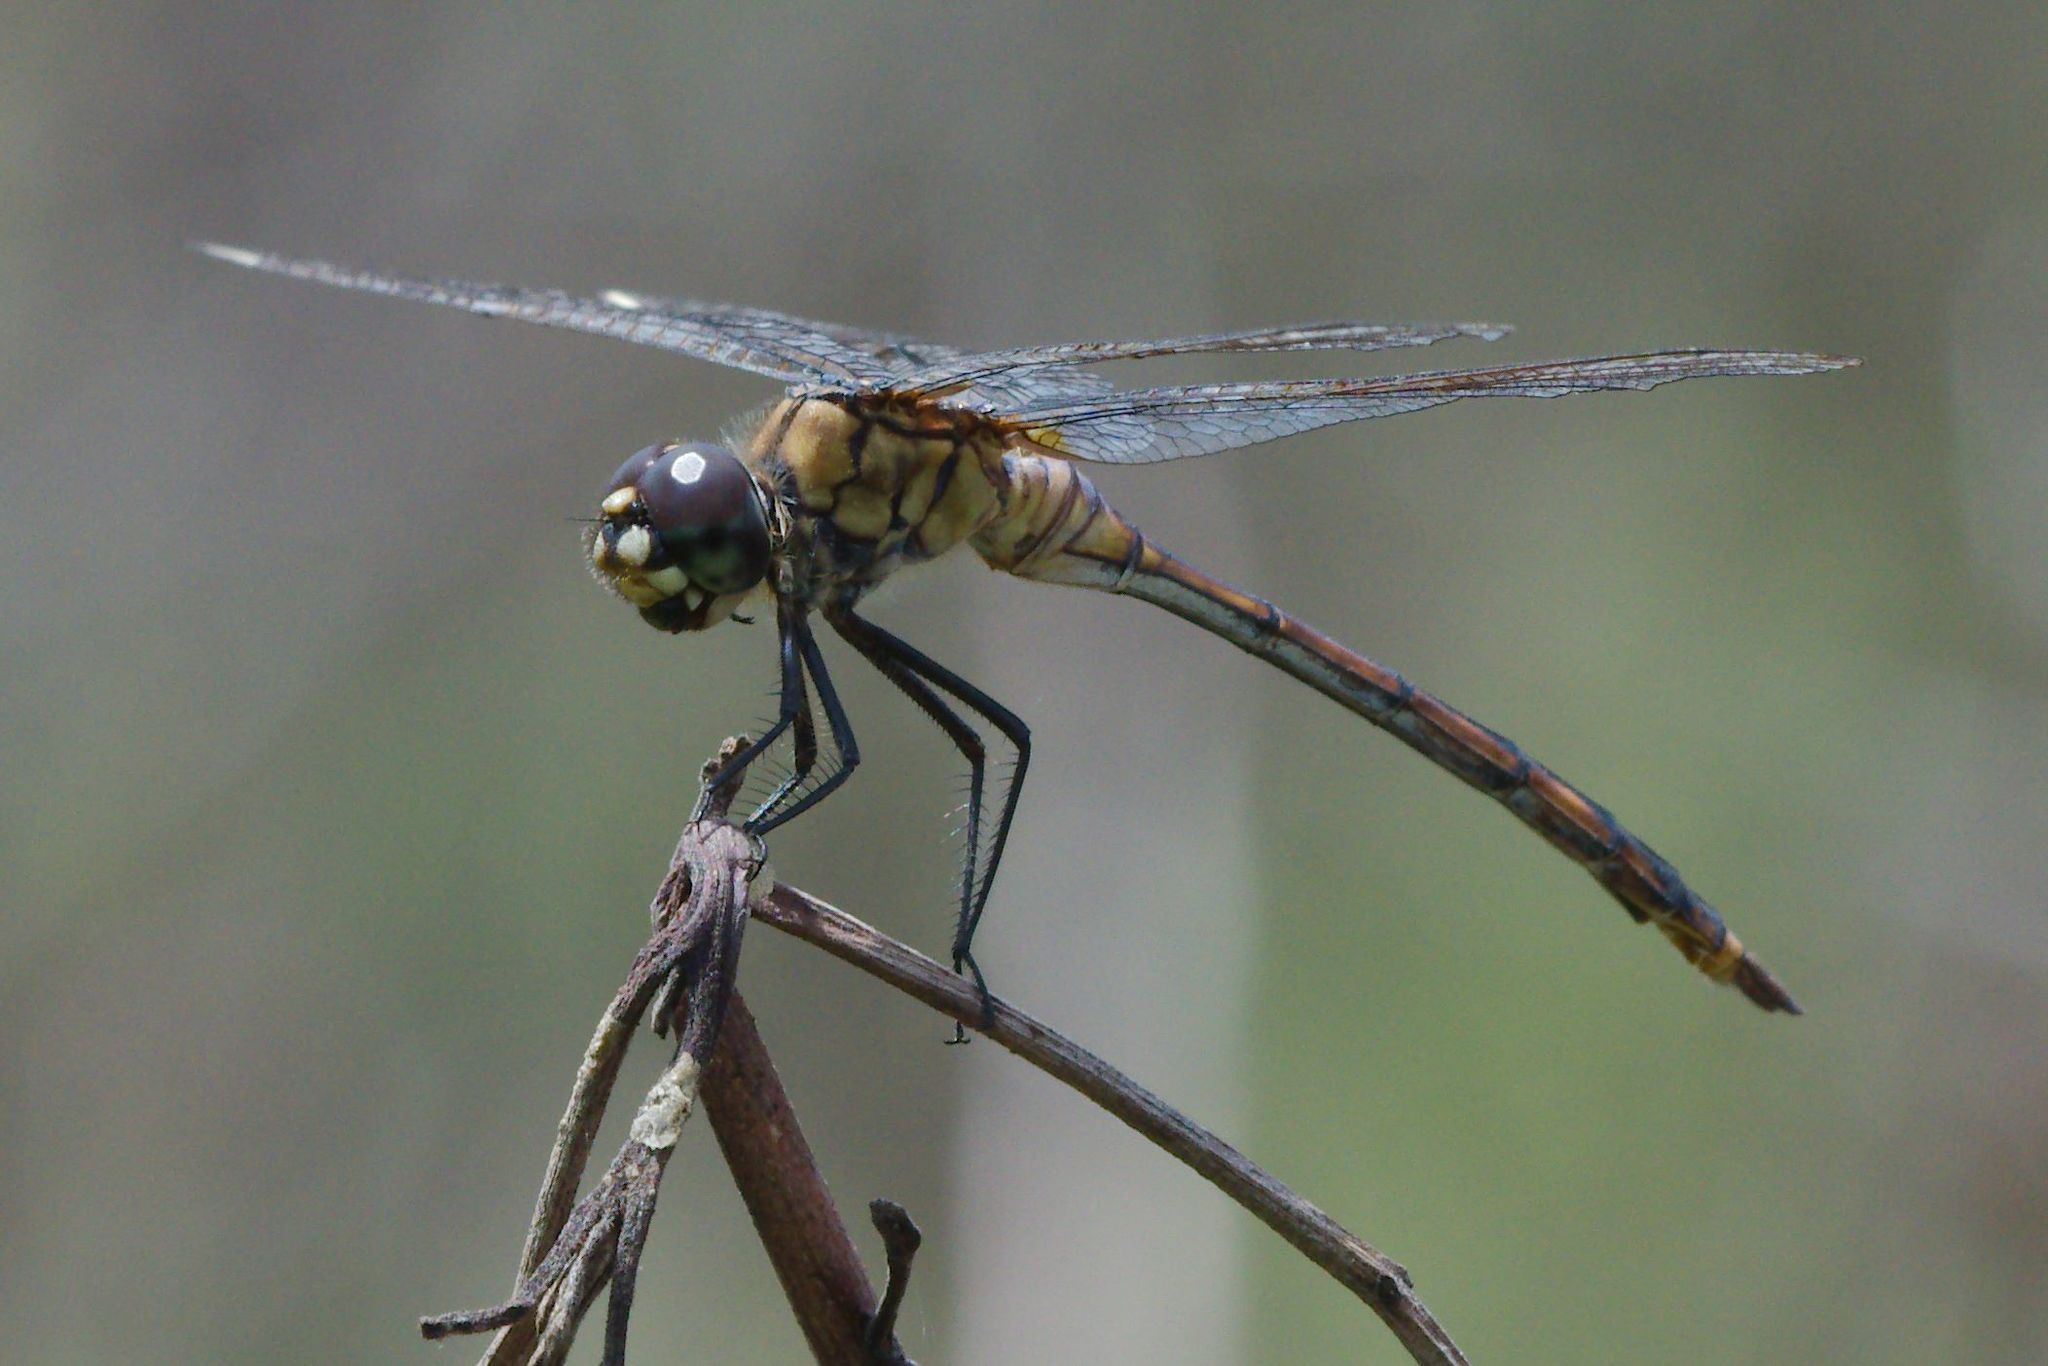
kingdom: Animalia
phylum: Arthropoda
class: Insecta
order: Odonata
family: Libellulidae
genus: Brachymesia
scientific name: Brachymesia gravida
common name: Four-spotted pennant
